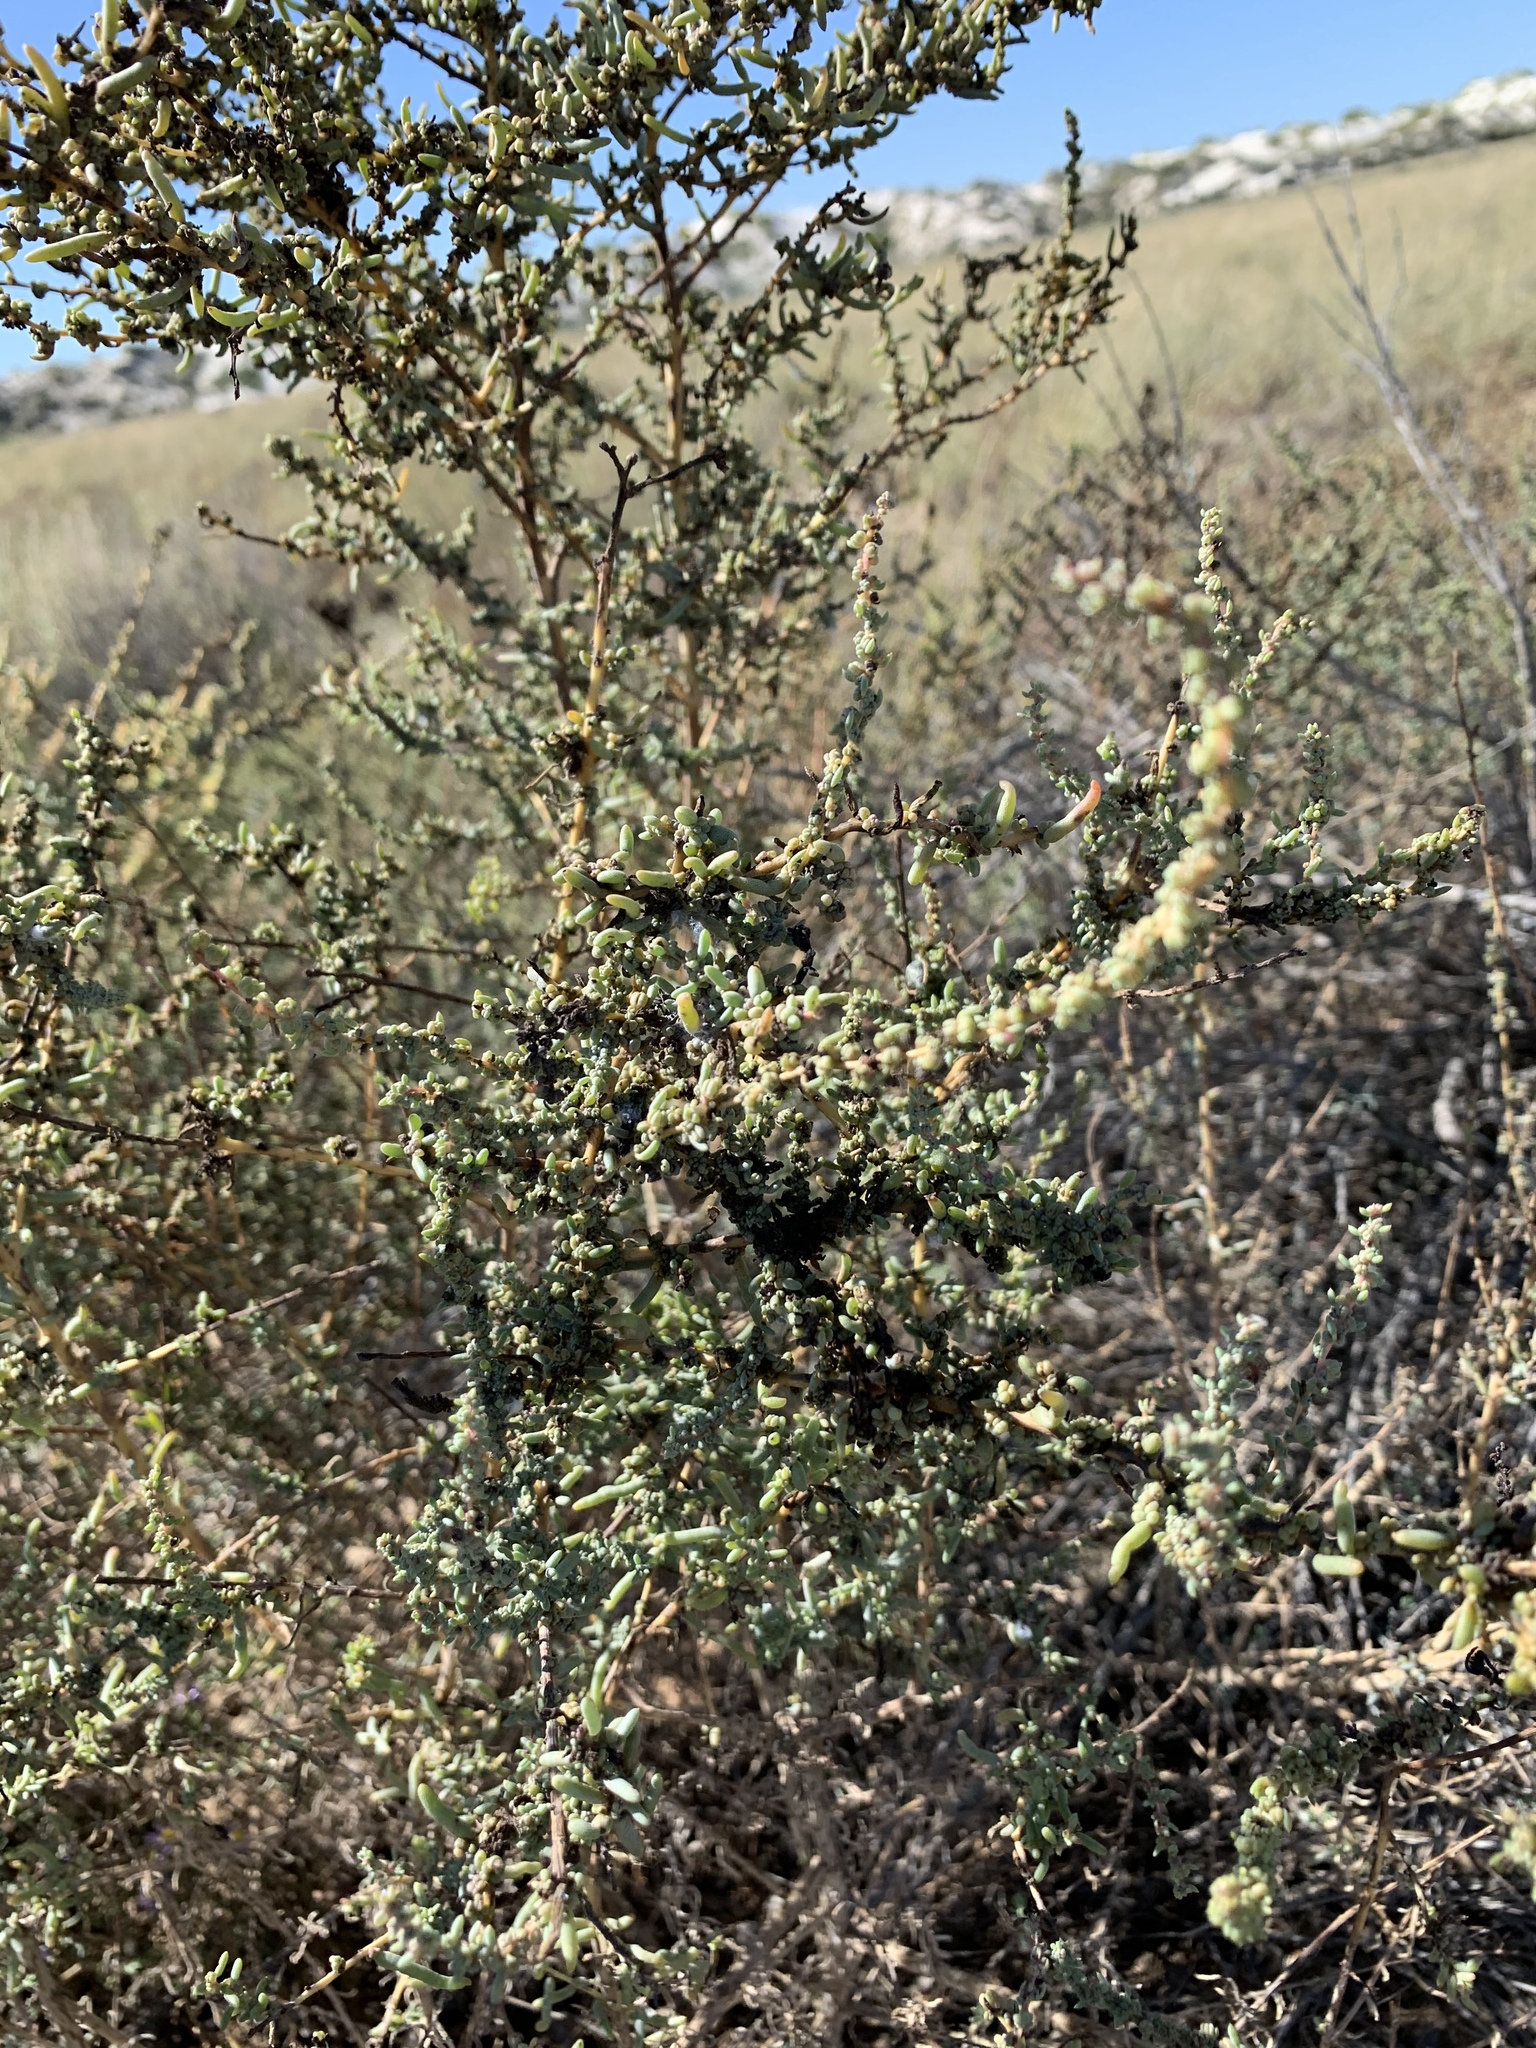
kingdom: Plantae
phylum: Tracheophyta
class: Magnoliopsida
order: Caryophyllales
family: Amaranthaceae
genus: Allenrolfea
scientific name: Allenrolfea occidentalis
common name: Iodine-bush
